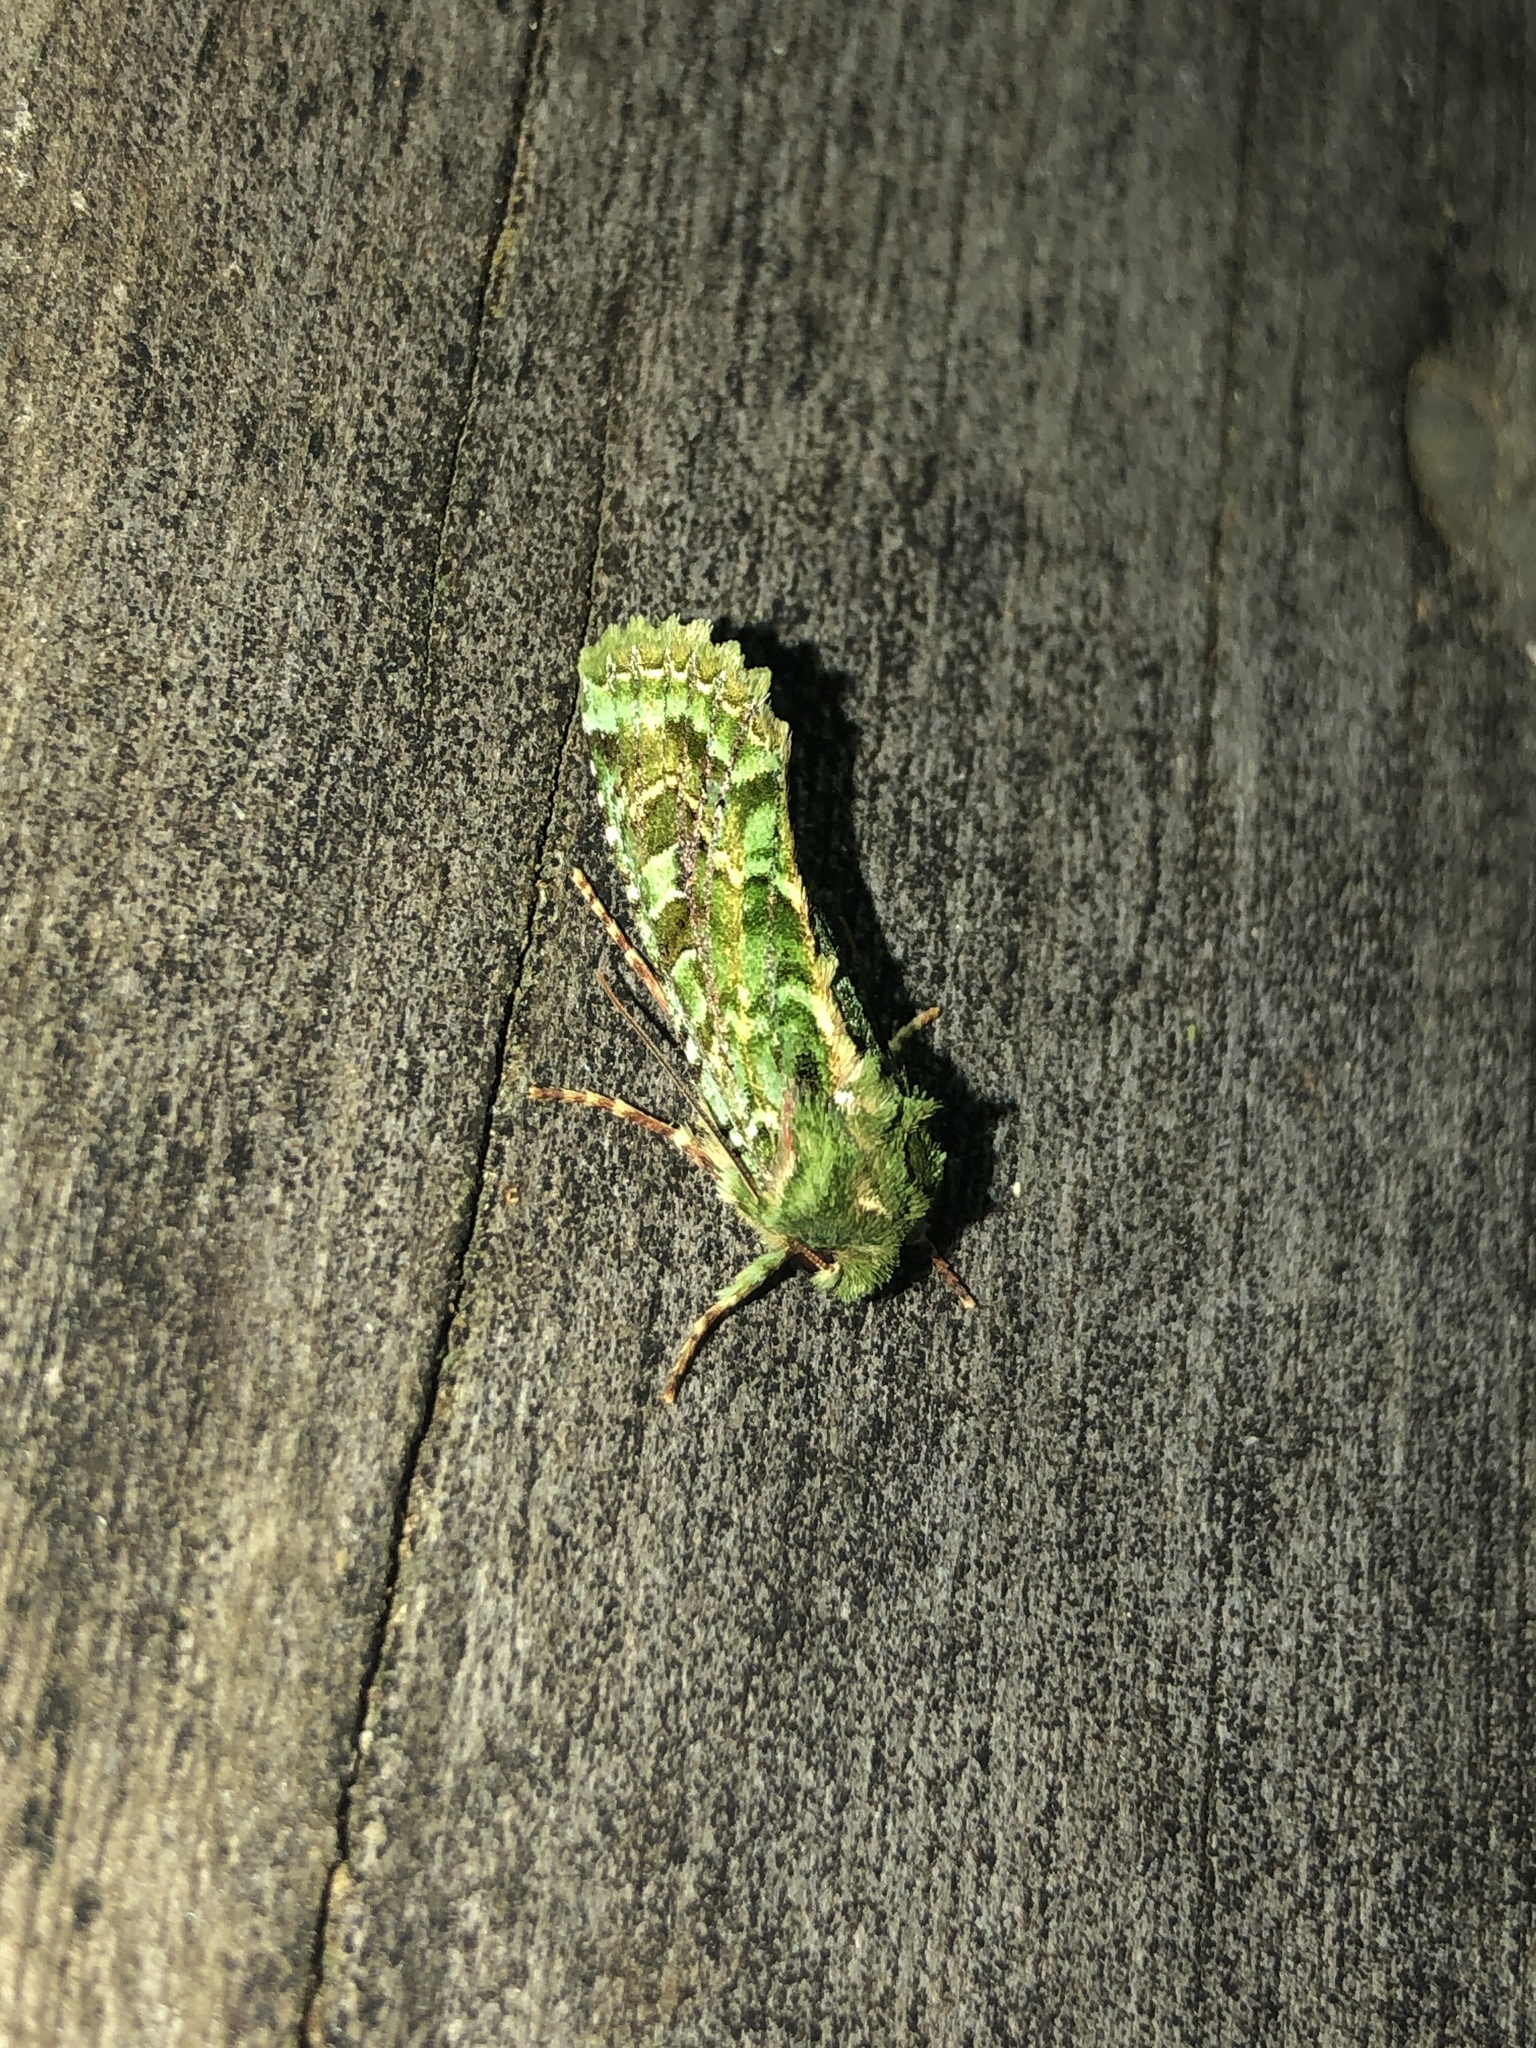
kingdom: Animalia
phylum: Arthropoda
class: Insecta
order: Lepidoptera
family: Noctuidae
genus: Feredayia
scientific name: Feredayia grammosa
